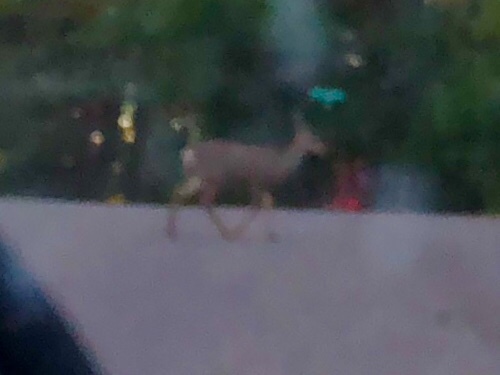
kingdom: Animalia
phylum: Chordata
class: Mammalia
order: Artiodactyla
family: Cervidae
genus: Odocoileus
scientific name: Odocoileus hemionus
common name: Mule deer
